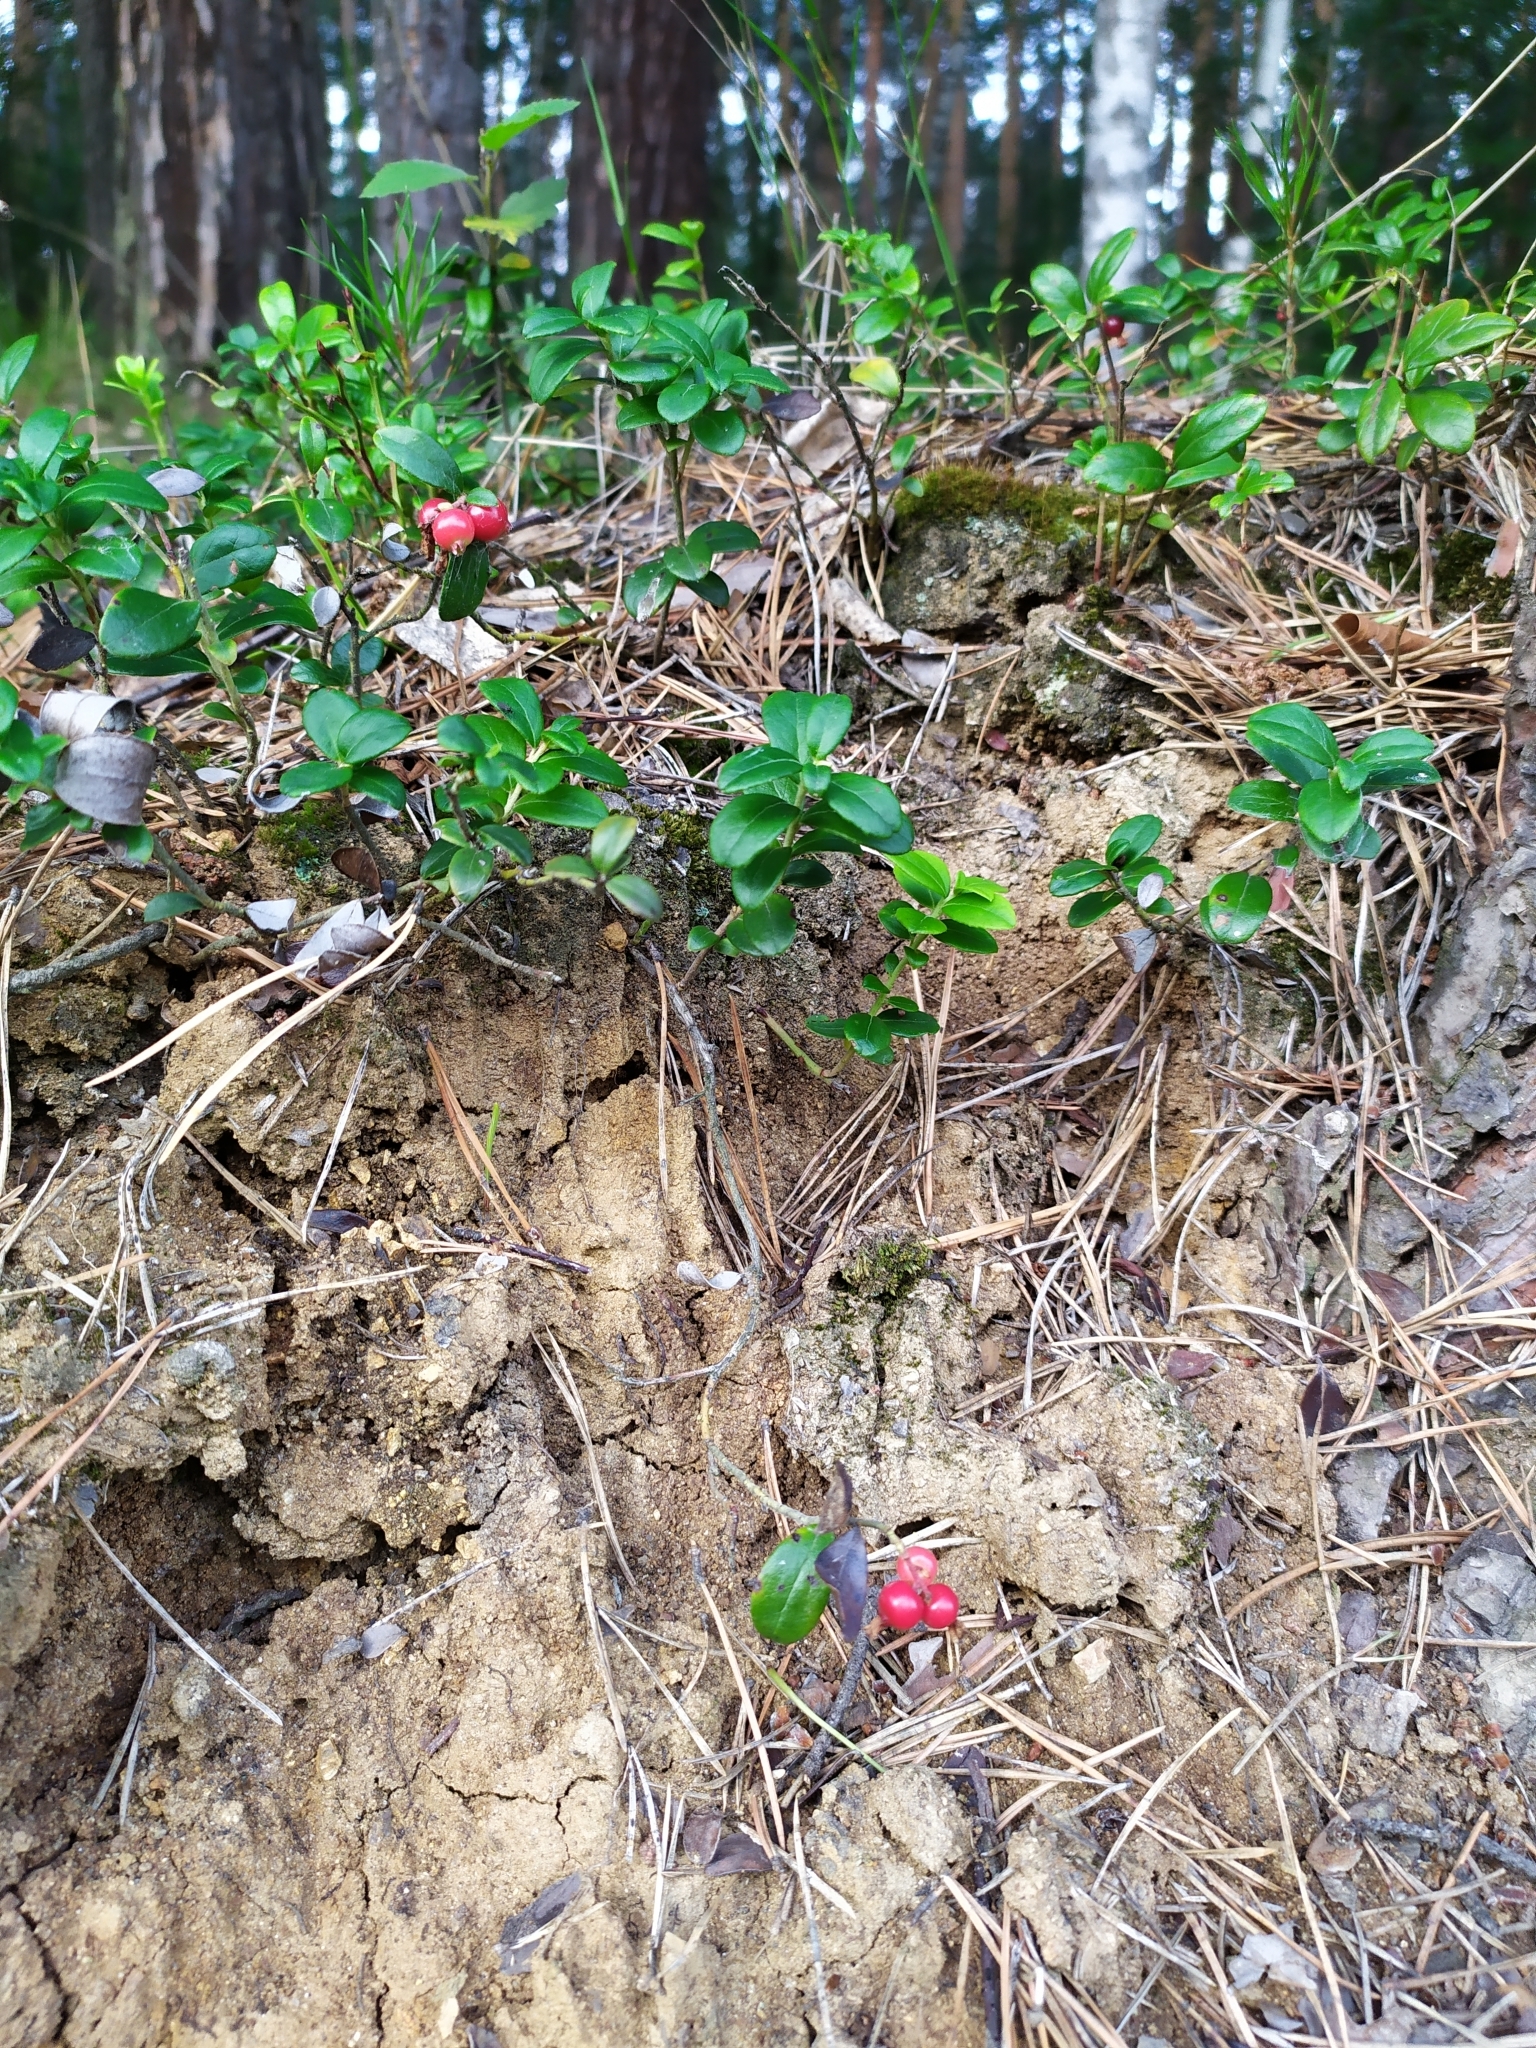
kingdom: Plantae
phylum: Tracheophyta
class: Magnoliopsida
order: Ericales
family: Ericaceae
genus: Vaccinium
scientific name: Vaccinium vitis-idaea
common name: Cowberry
